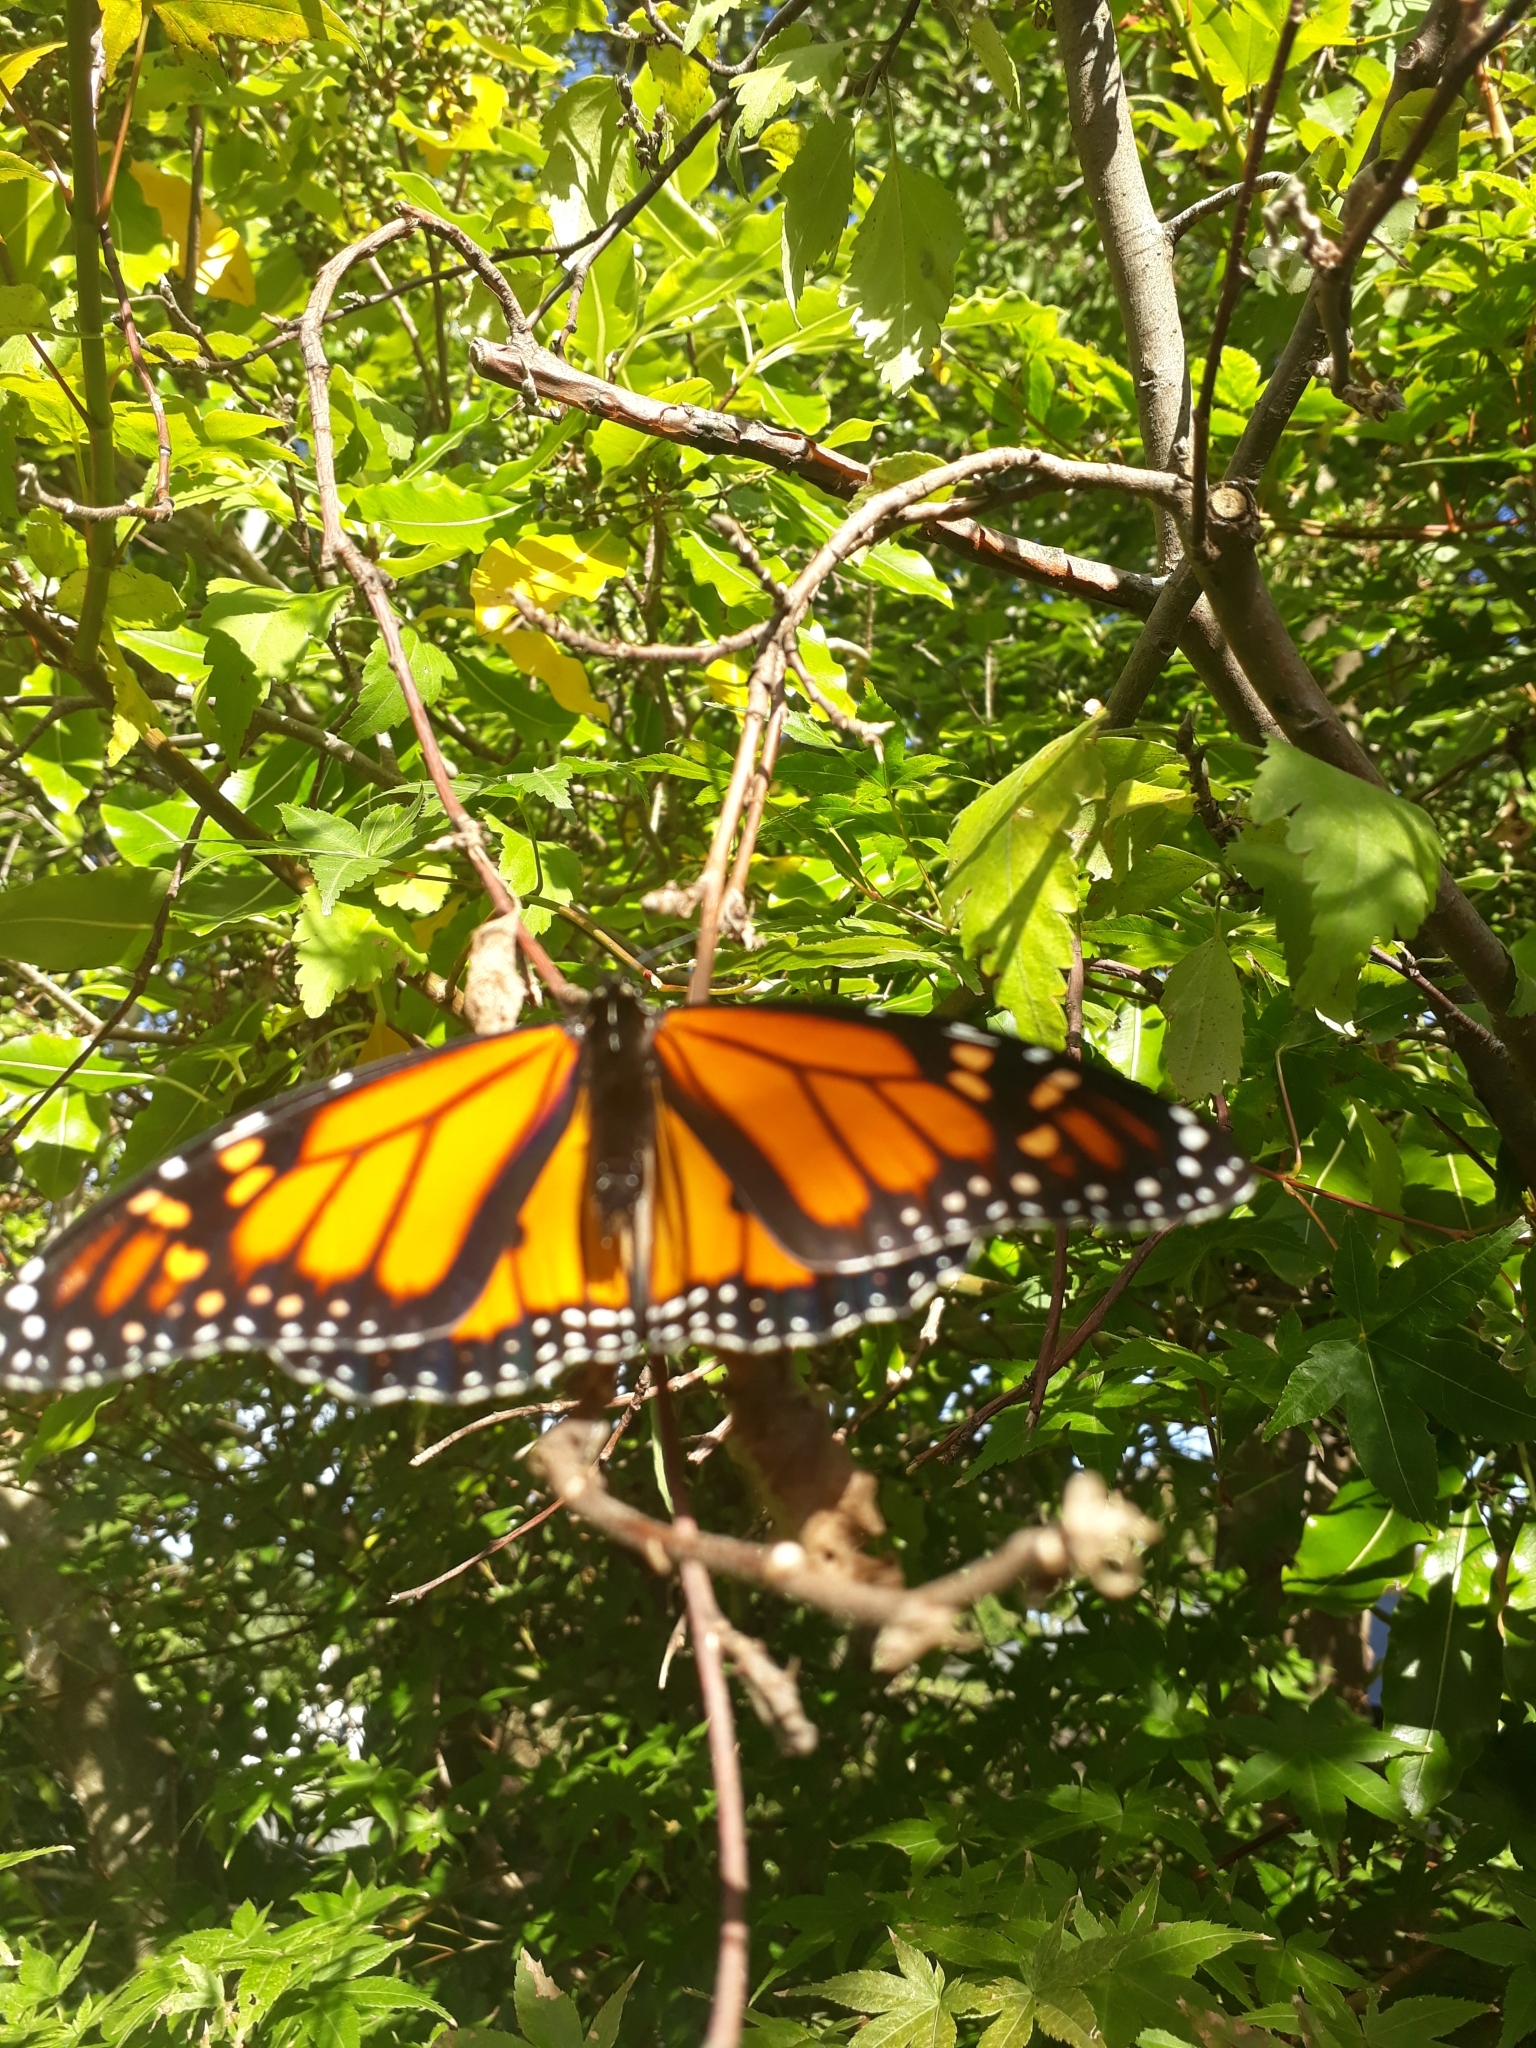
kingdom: Animalia
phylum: Arthropoda
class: Insecta
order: Lepidoptera
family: Nymphalidae
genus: Danaus
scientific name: Danaus plexippus
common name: Monarch
